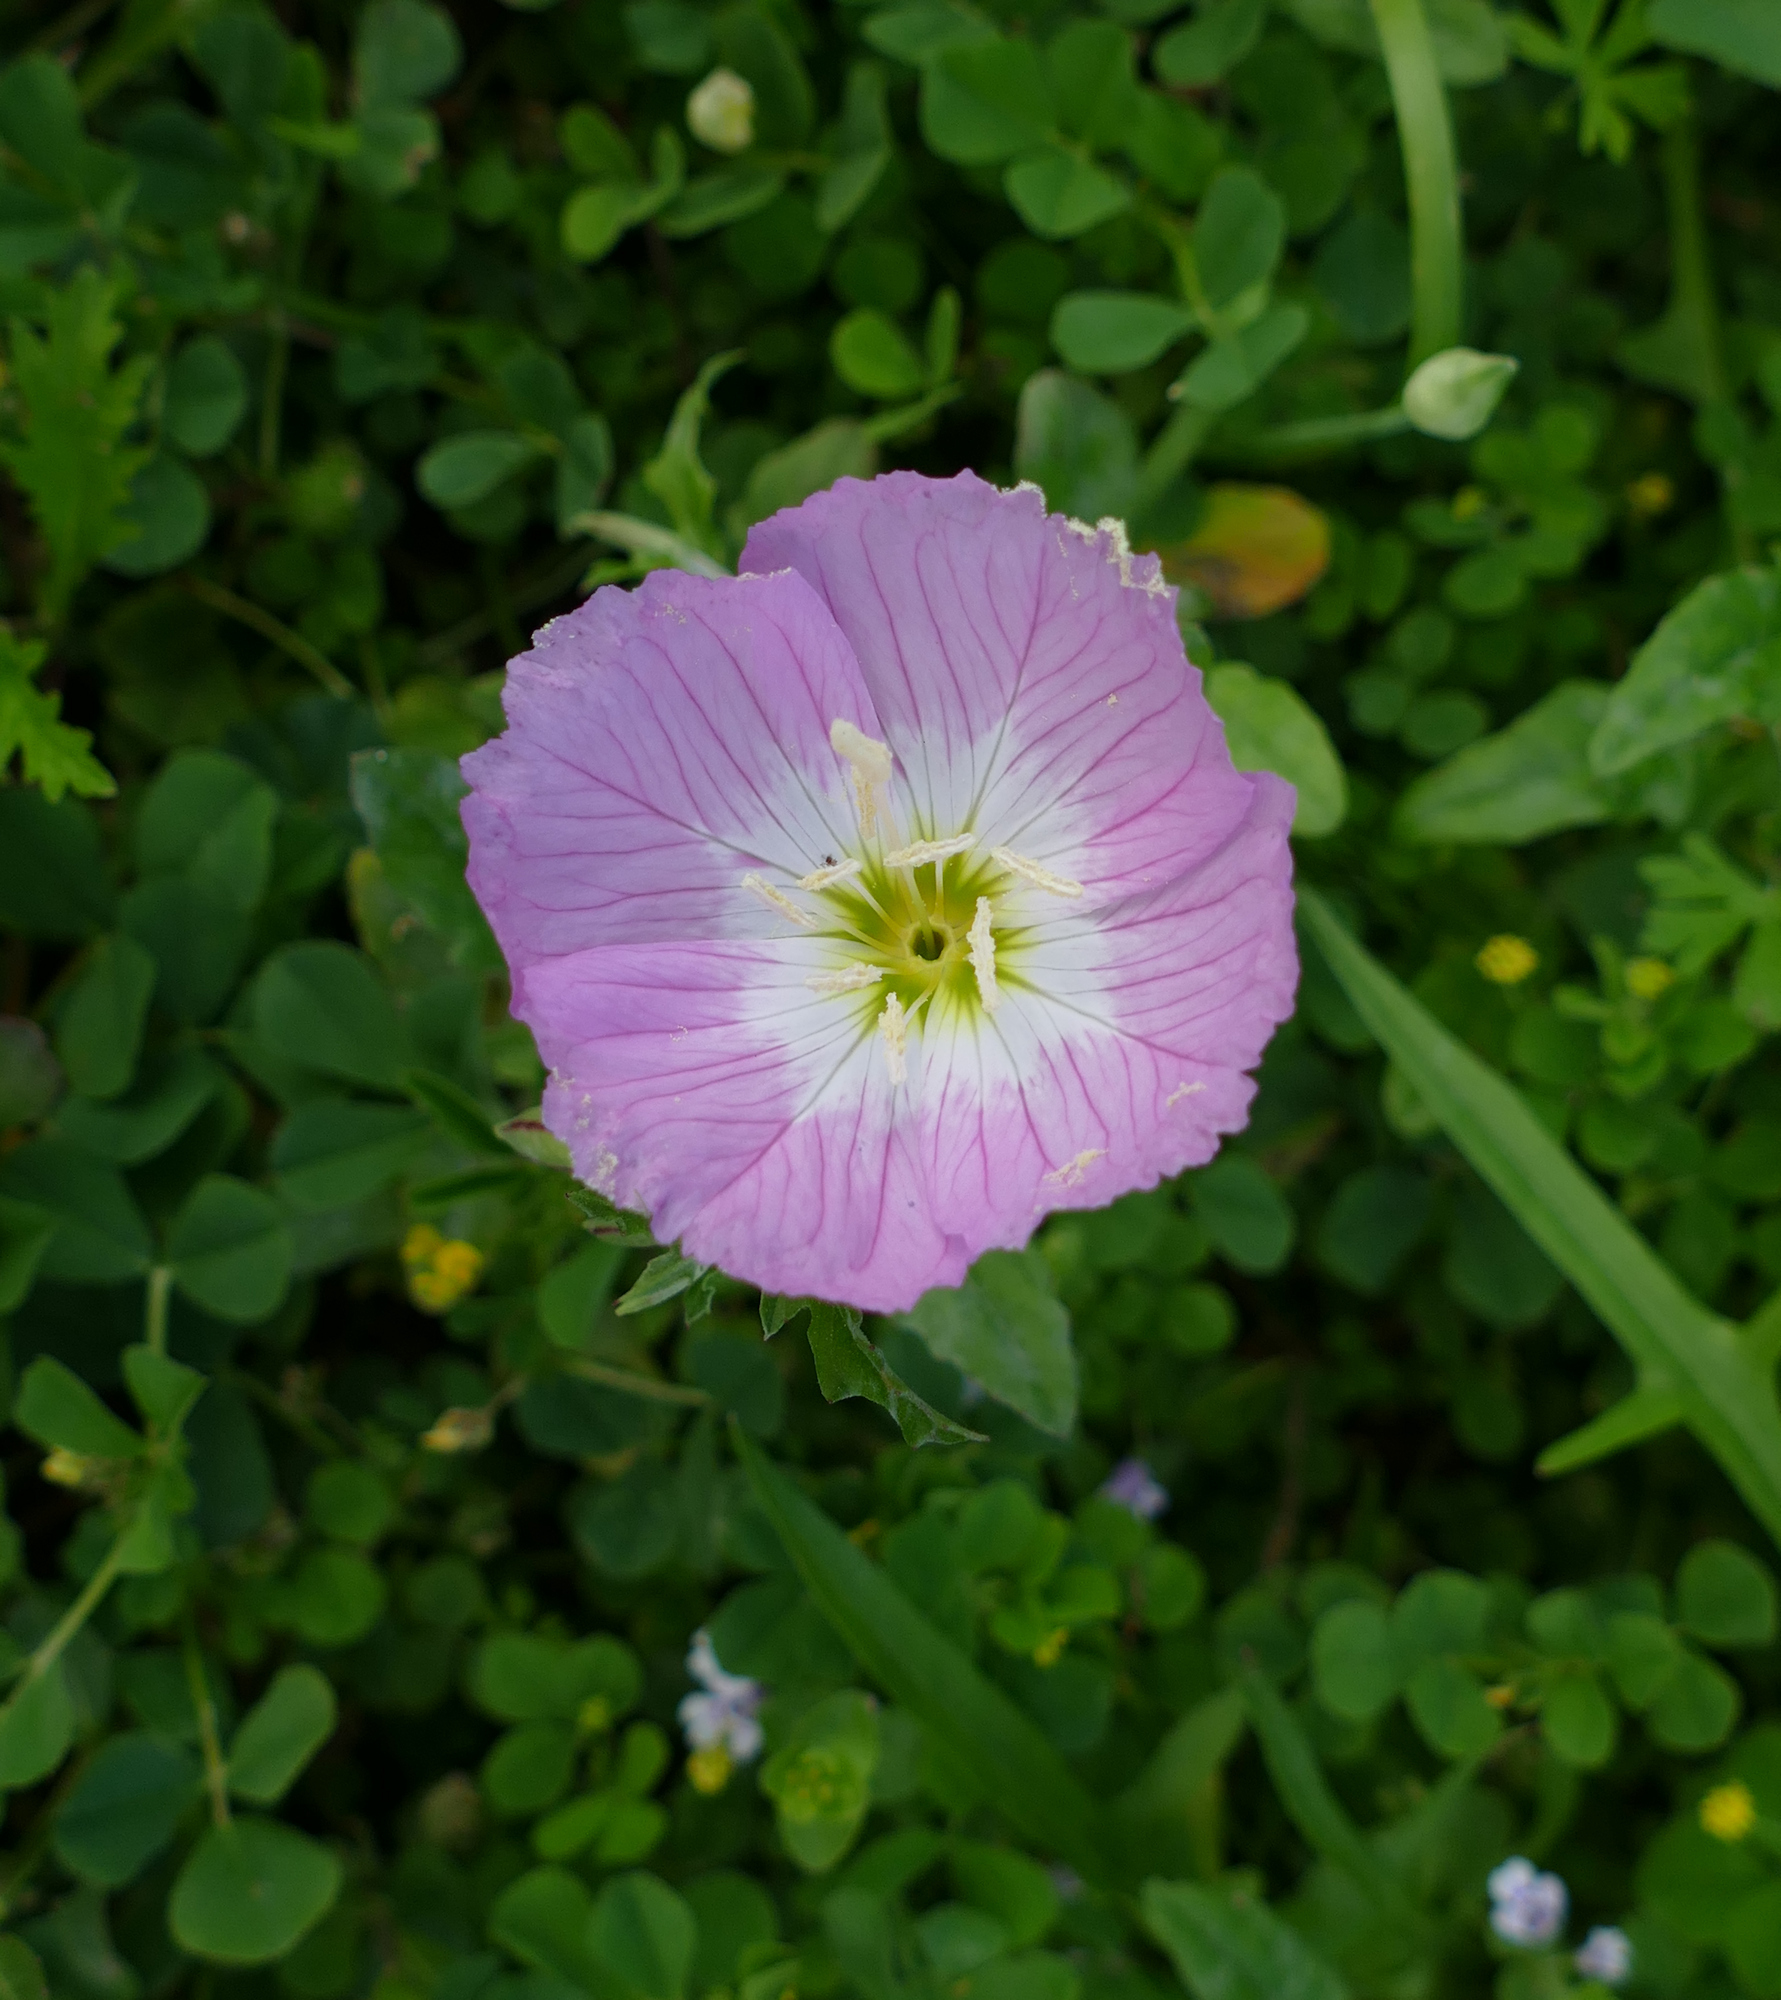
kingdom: Plantae
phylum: Tracheophyta
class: Magnoliopsida
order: Myrtales
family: Onagraceae
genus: Oenothera
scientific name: Oenothera speciosa
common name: White evening-primrose
